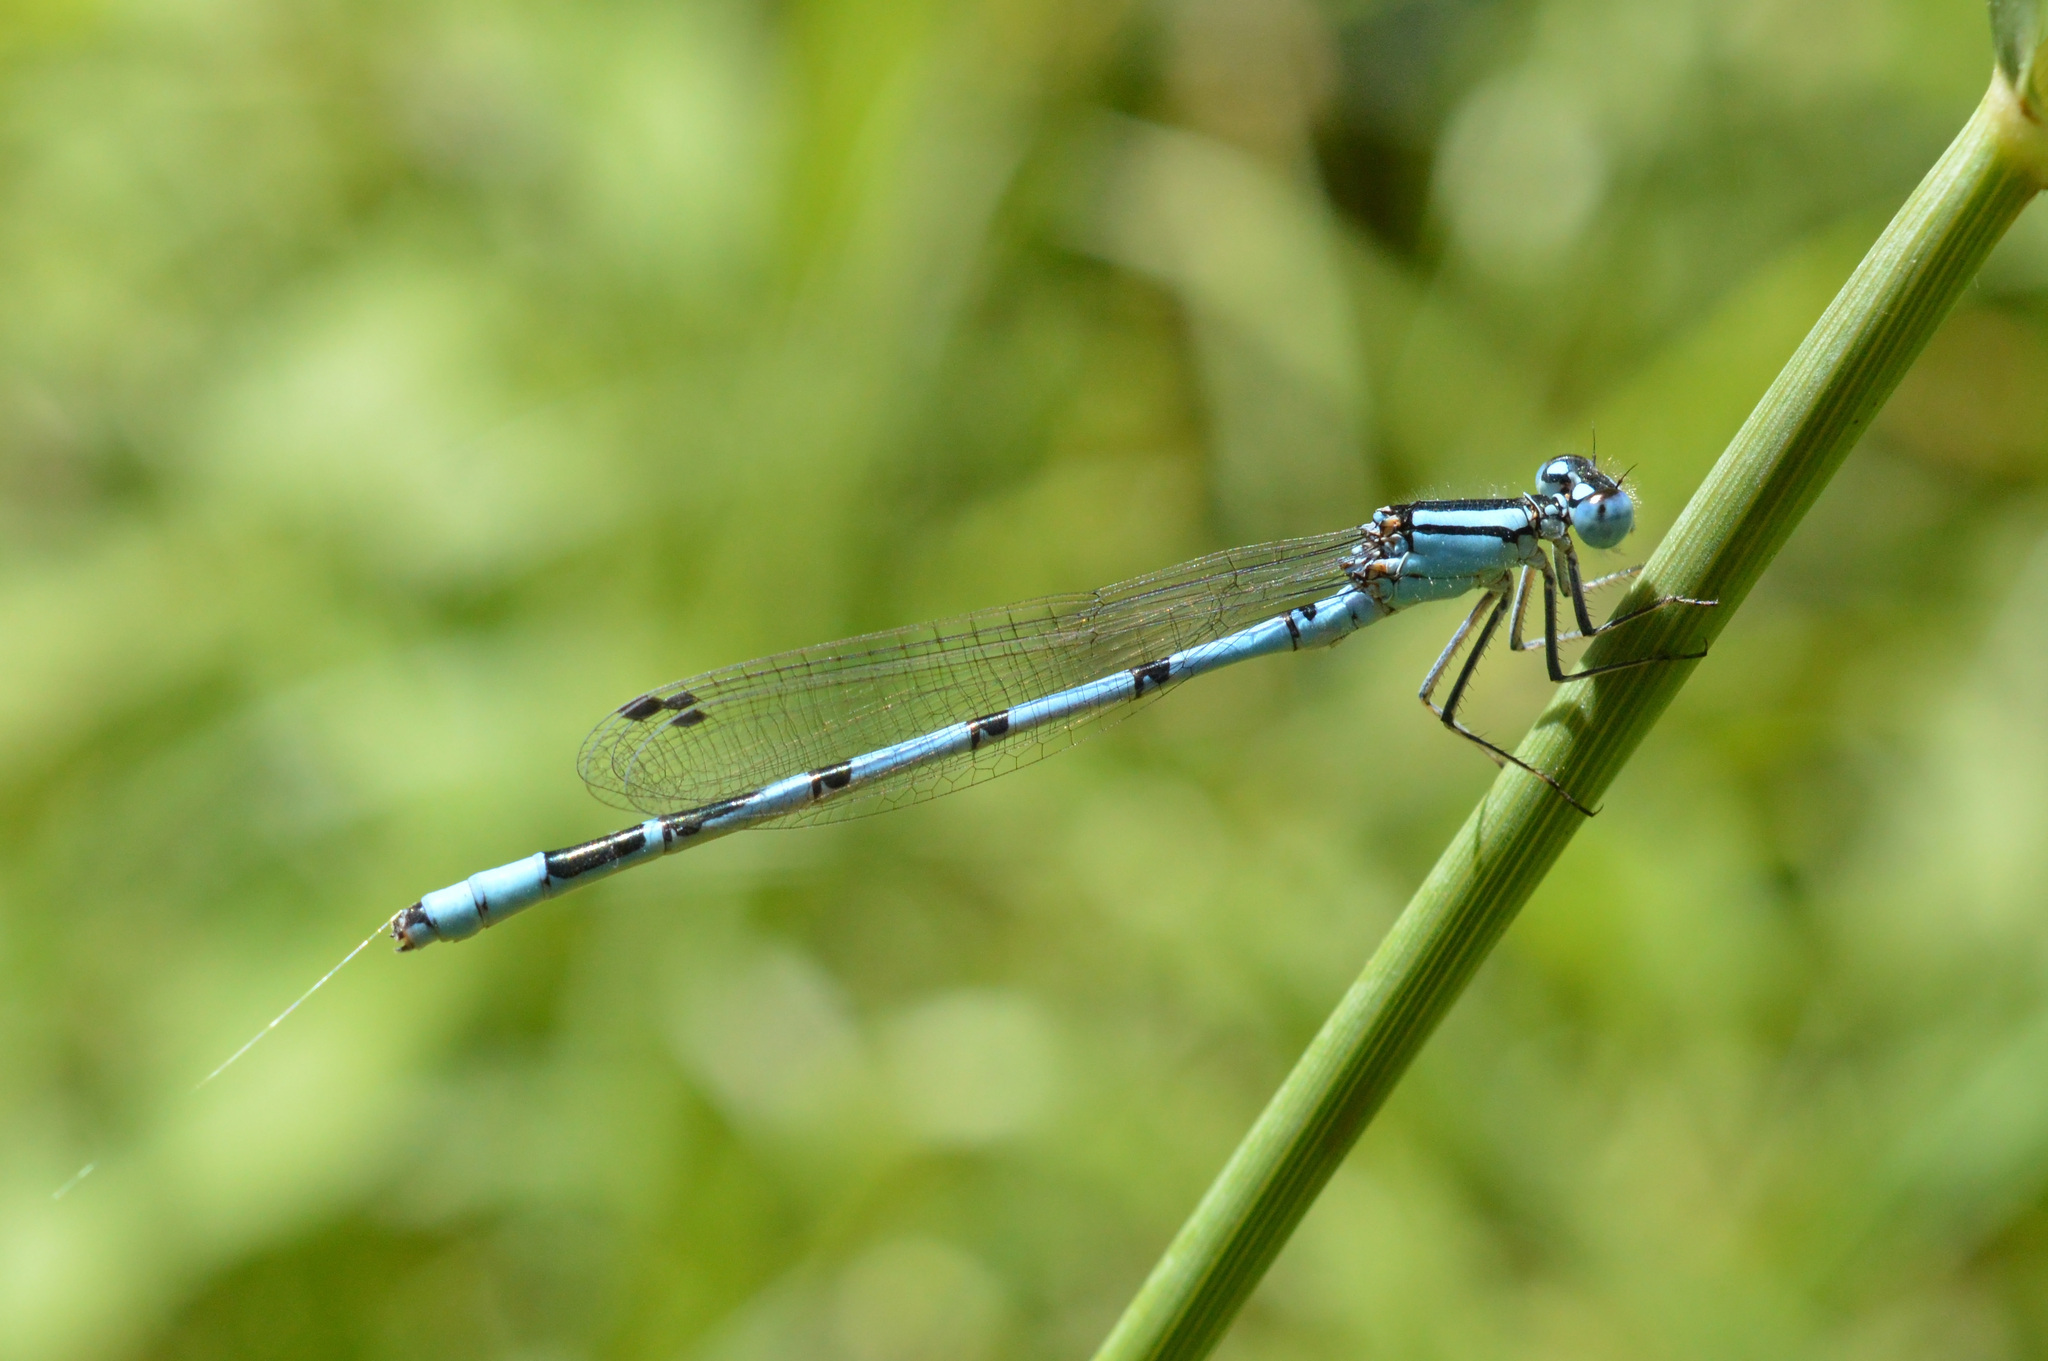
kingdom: Animalia
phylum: Arthropoda
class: Insecta
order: Odonata
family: Coenagrionidae
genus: Enallagma
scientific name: Enallagma cyathigerum
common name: Common blue damselfly
